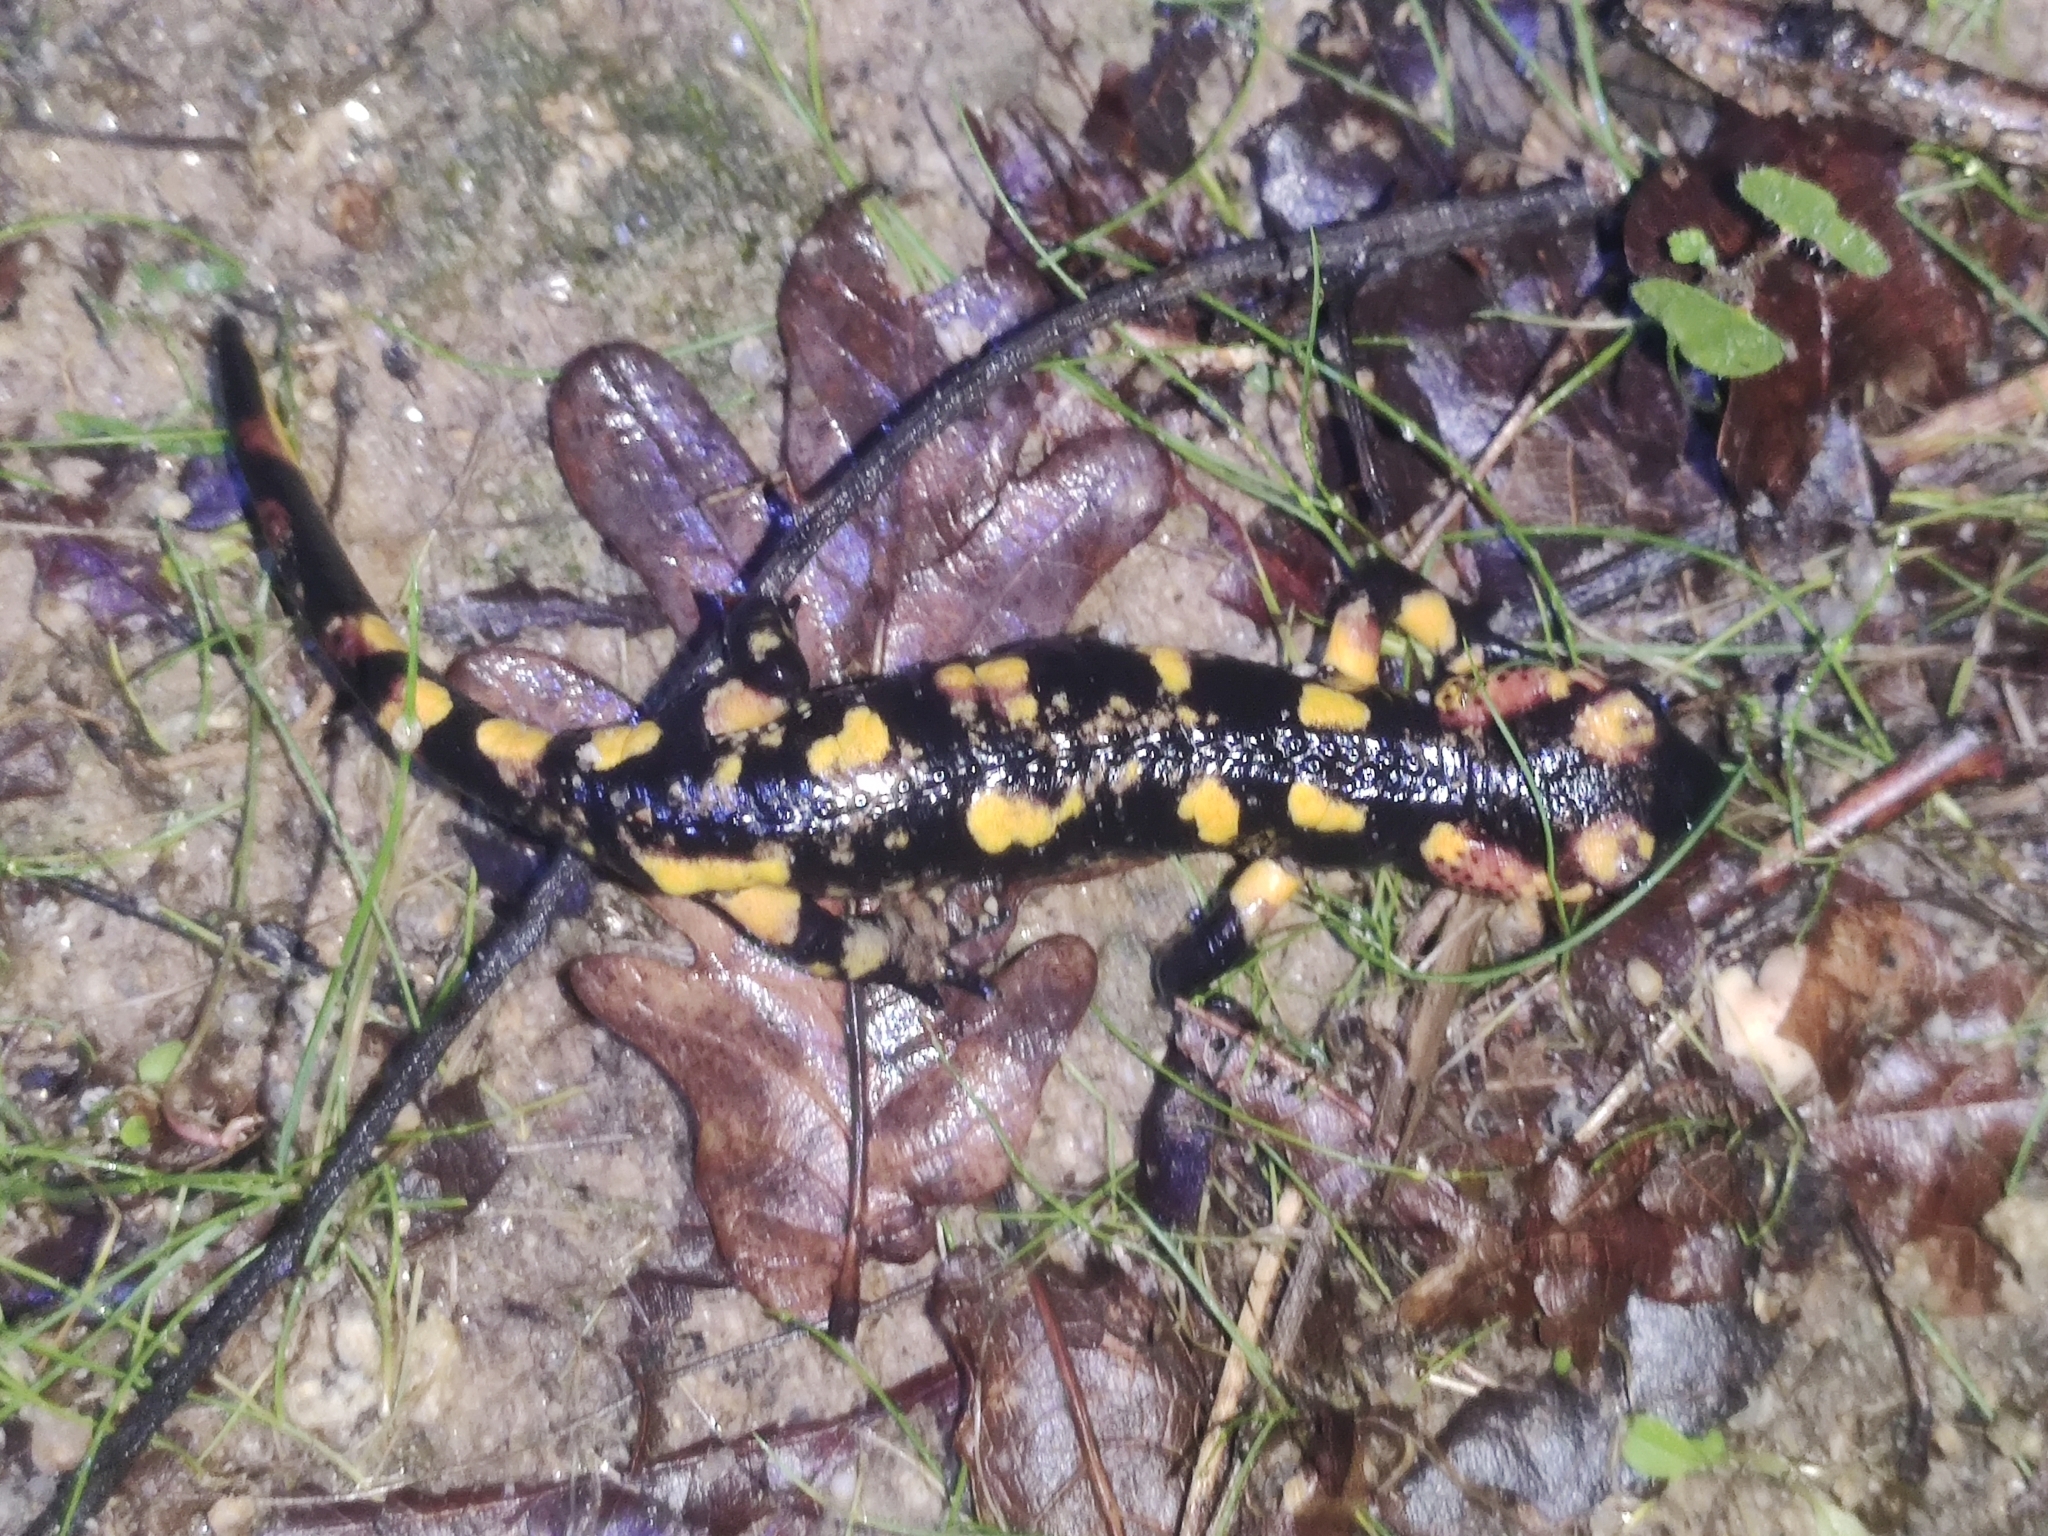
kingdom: Animalia
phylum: Chordata
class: Amphibia
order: Caudata
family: Salamandridae
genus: Salamandra
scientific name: Salamandra salamandra
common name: Fire salamander
